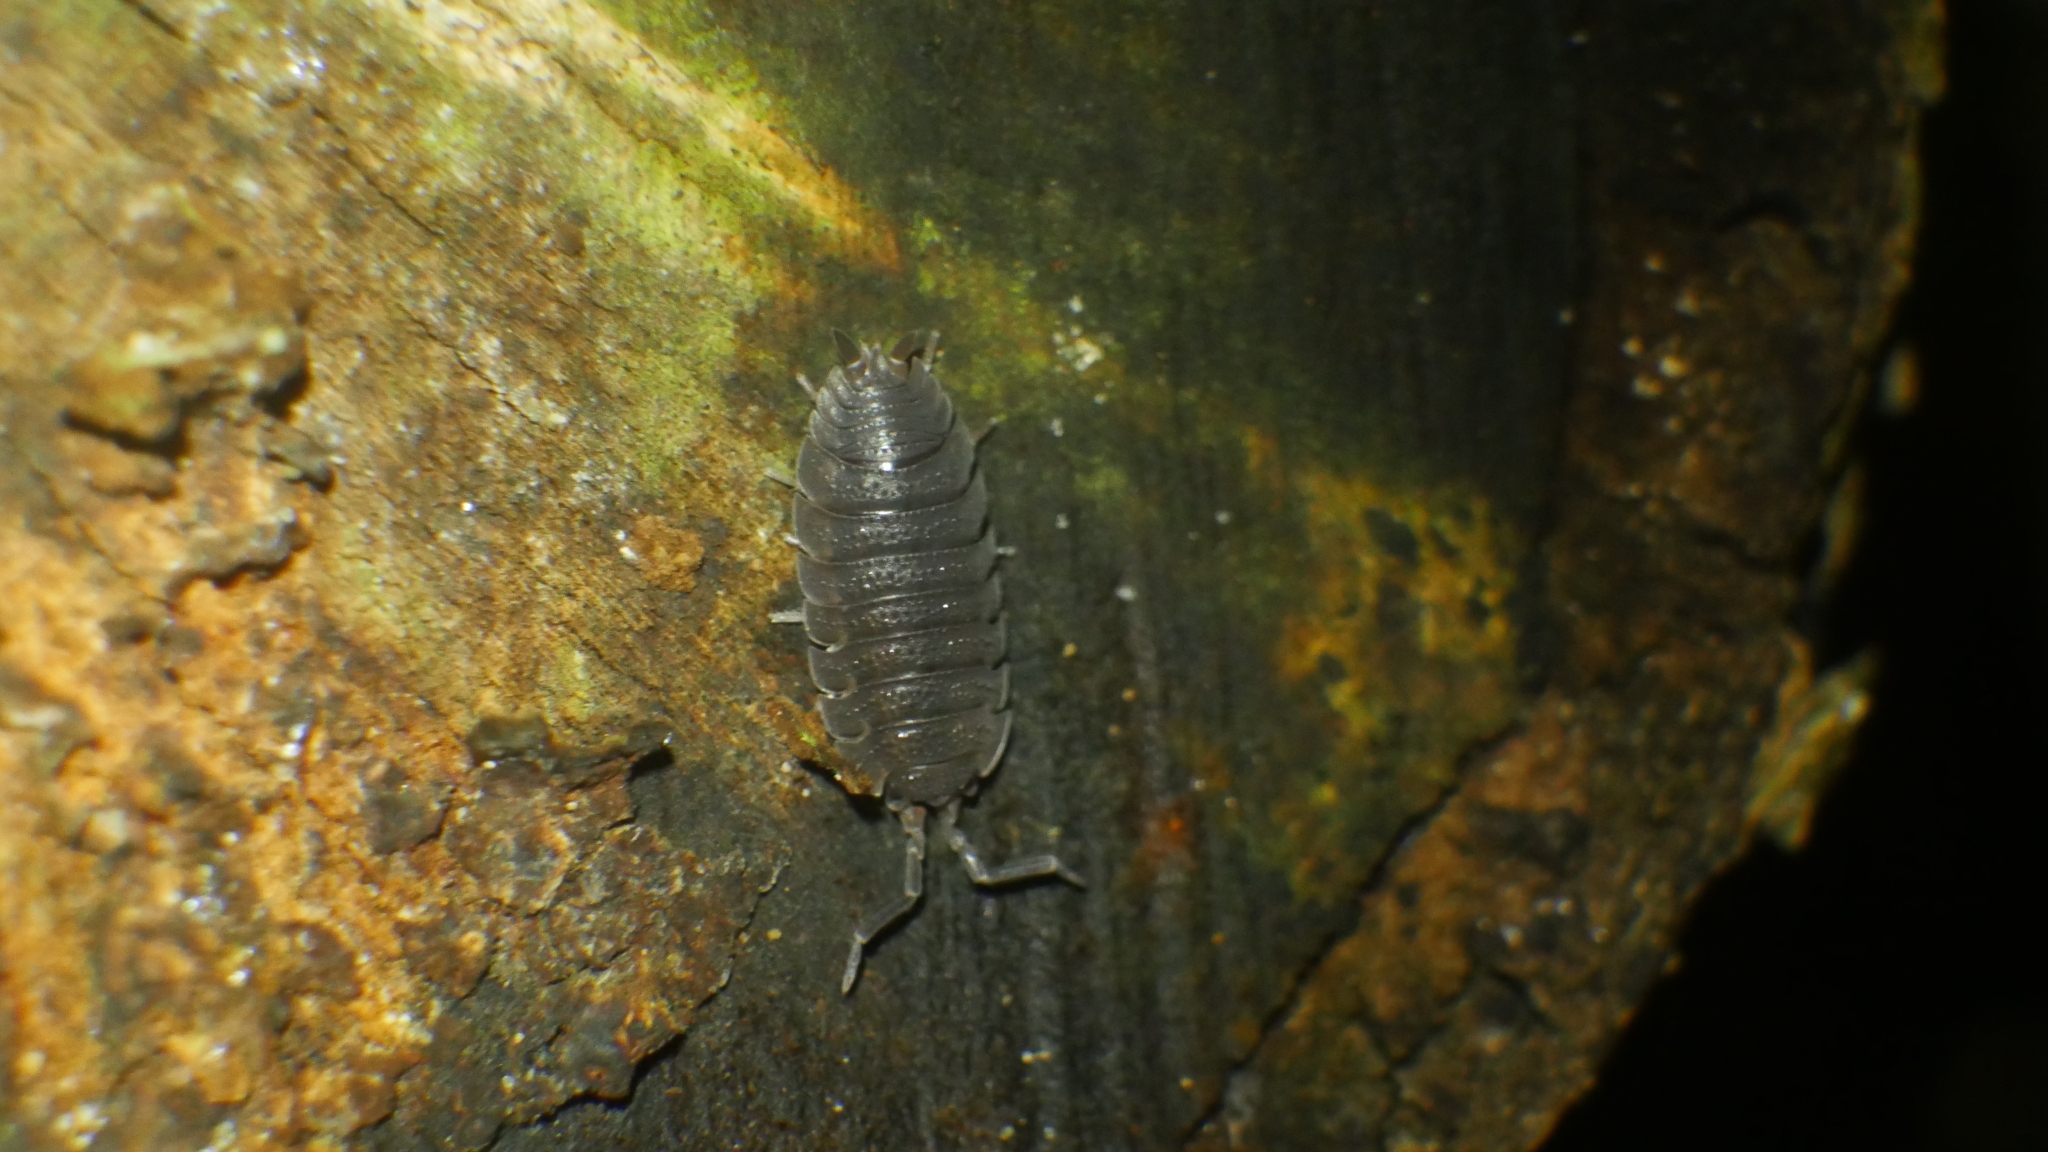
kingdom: Animalia
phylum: Arthropoda
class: Malacostraca
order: Isopoda
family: Porcellionidae
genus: Porcellio
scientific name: Porcellio scaber
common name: Common rough woodlouse
